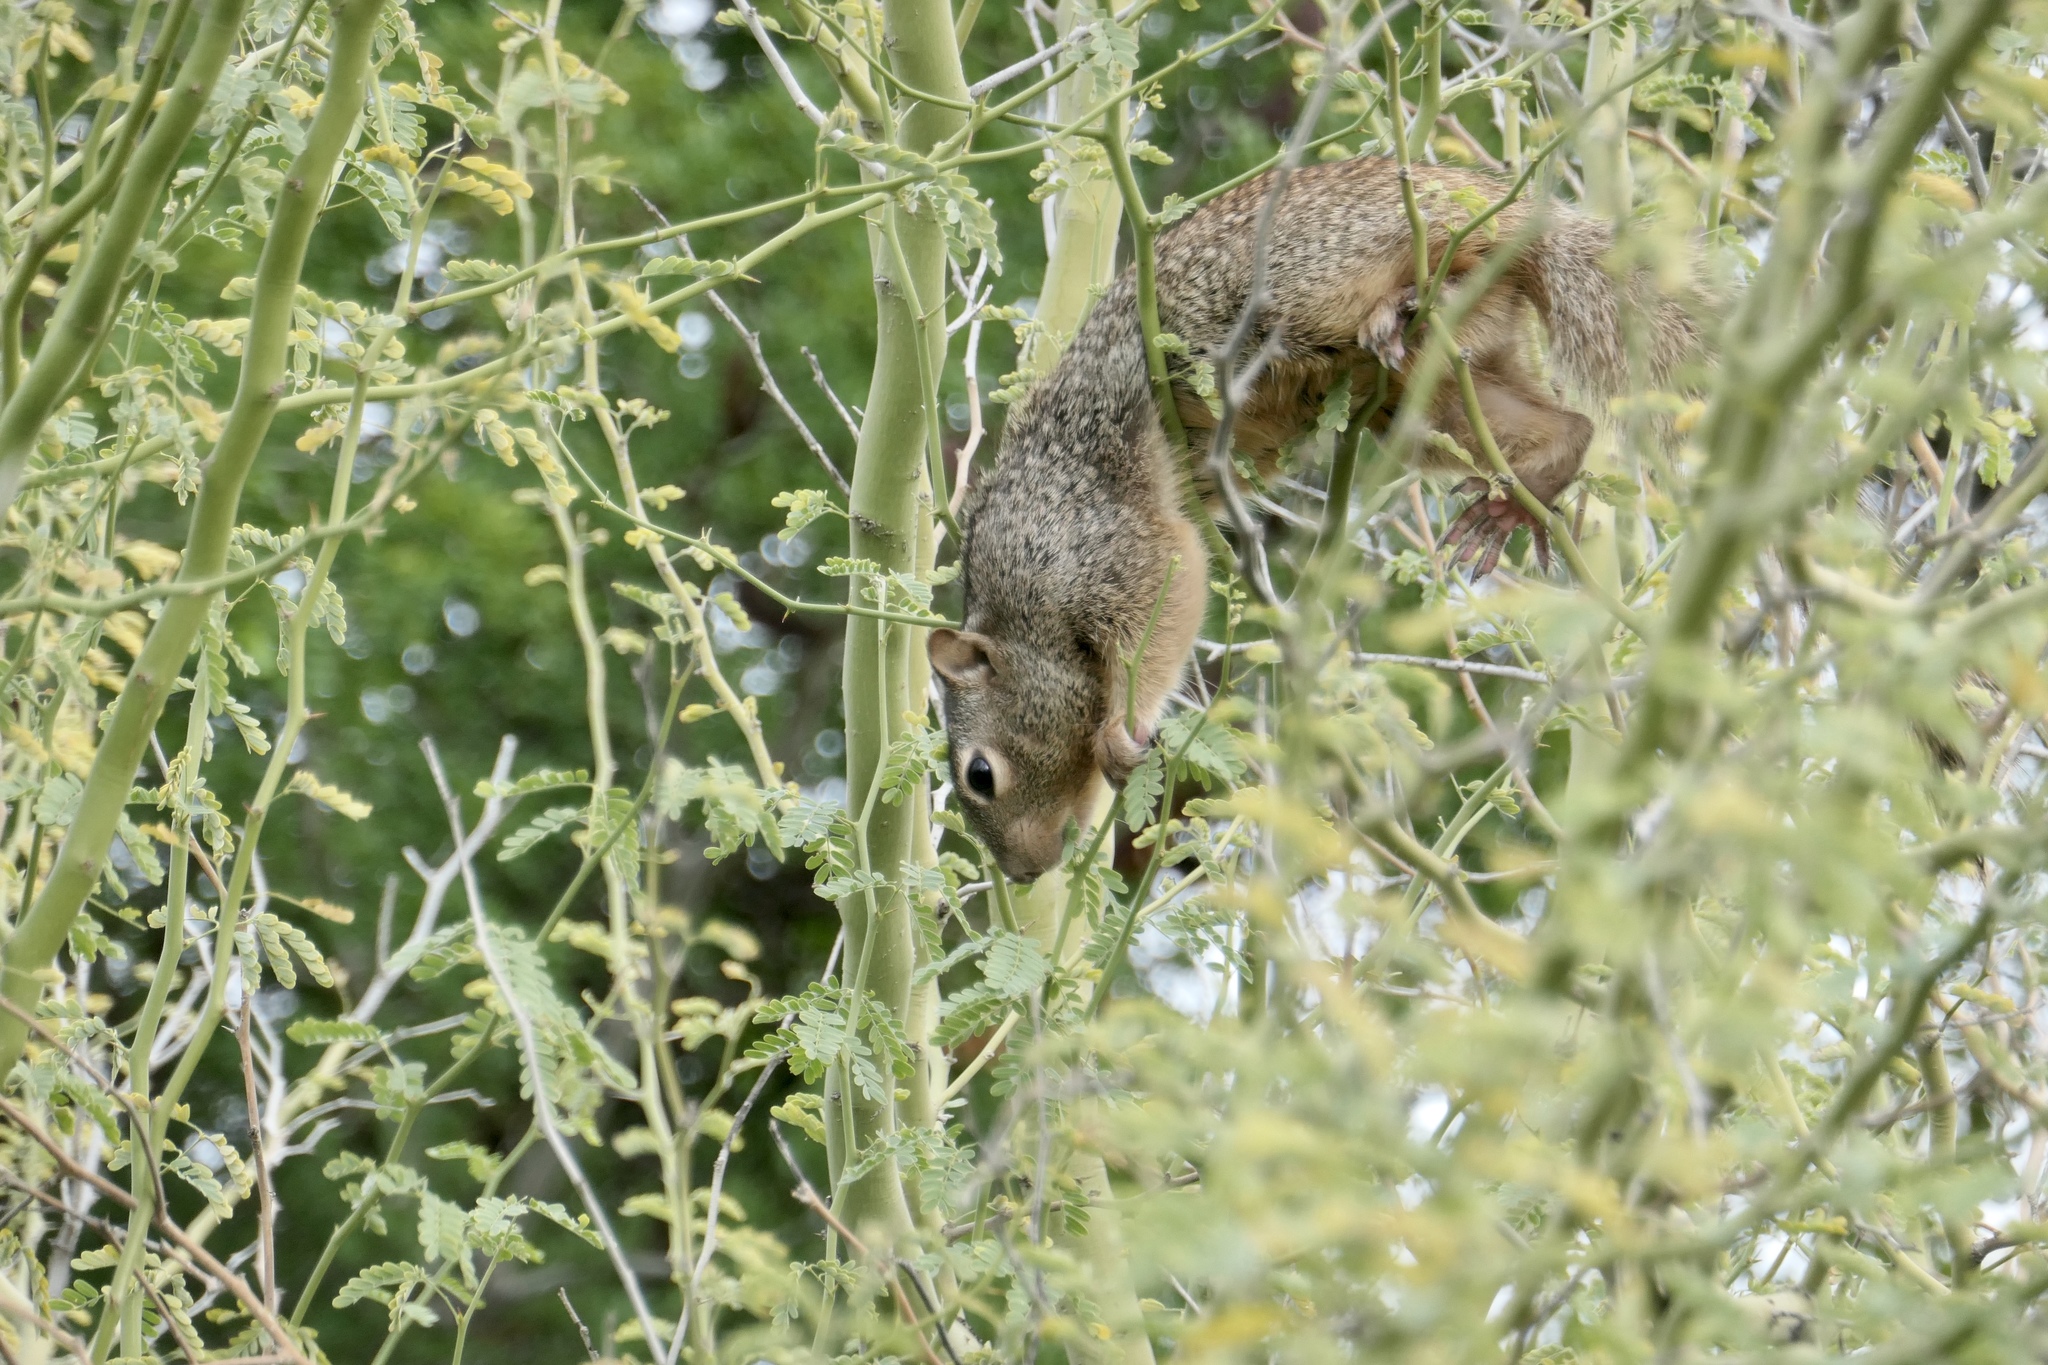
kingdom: Animalia
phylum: Chordata
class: Mammalia
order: Rodentia
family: Sciuridae
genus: Otospermophilus
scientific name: Otospermophilus variegatus
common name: Rock squirrel
